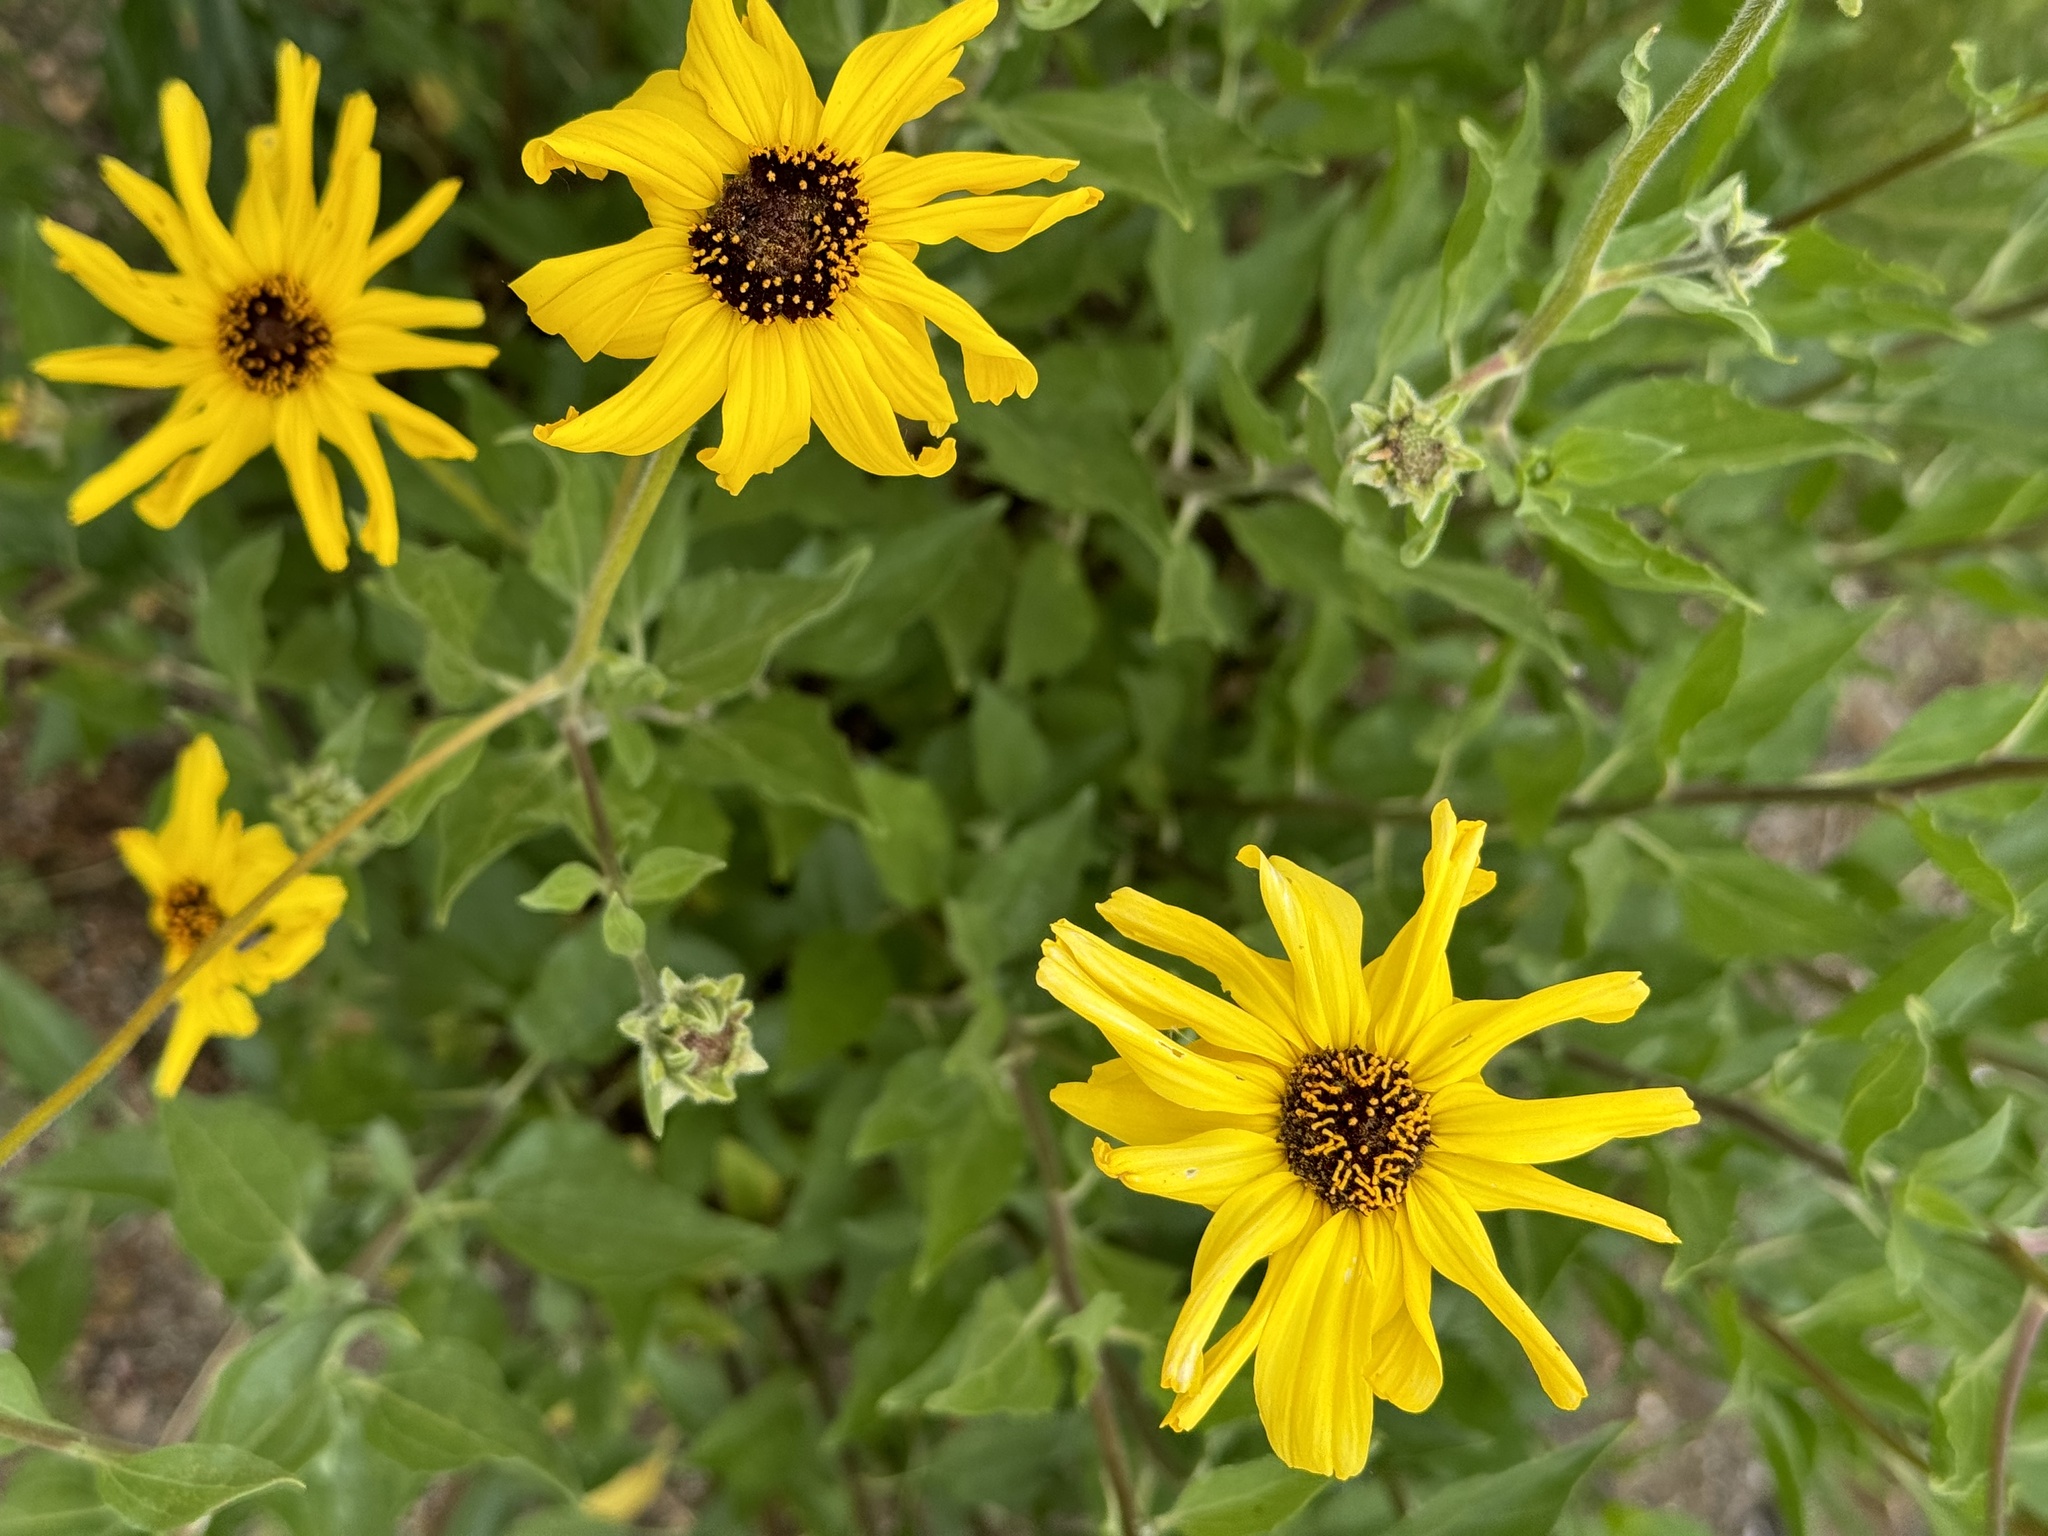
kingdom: Plantae
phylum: Tracheophyta
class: Magnoliopsida
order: Asterales
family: Asteraceae
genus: Encelia
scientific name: Encelia californica
